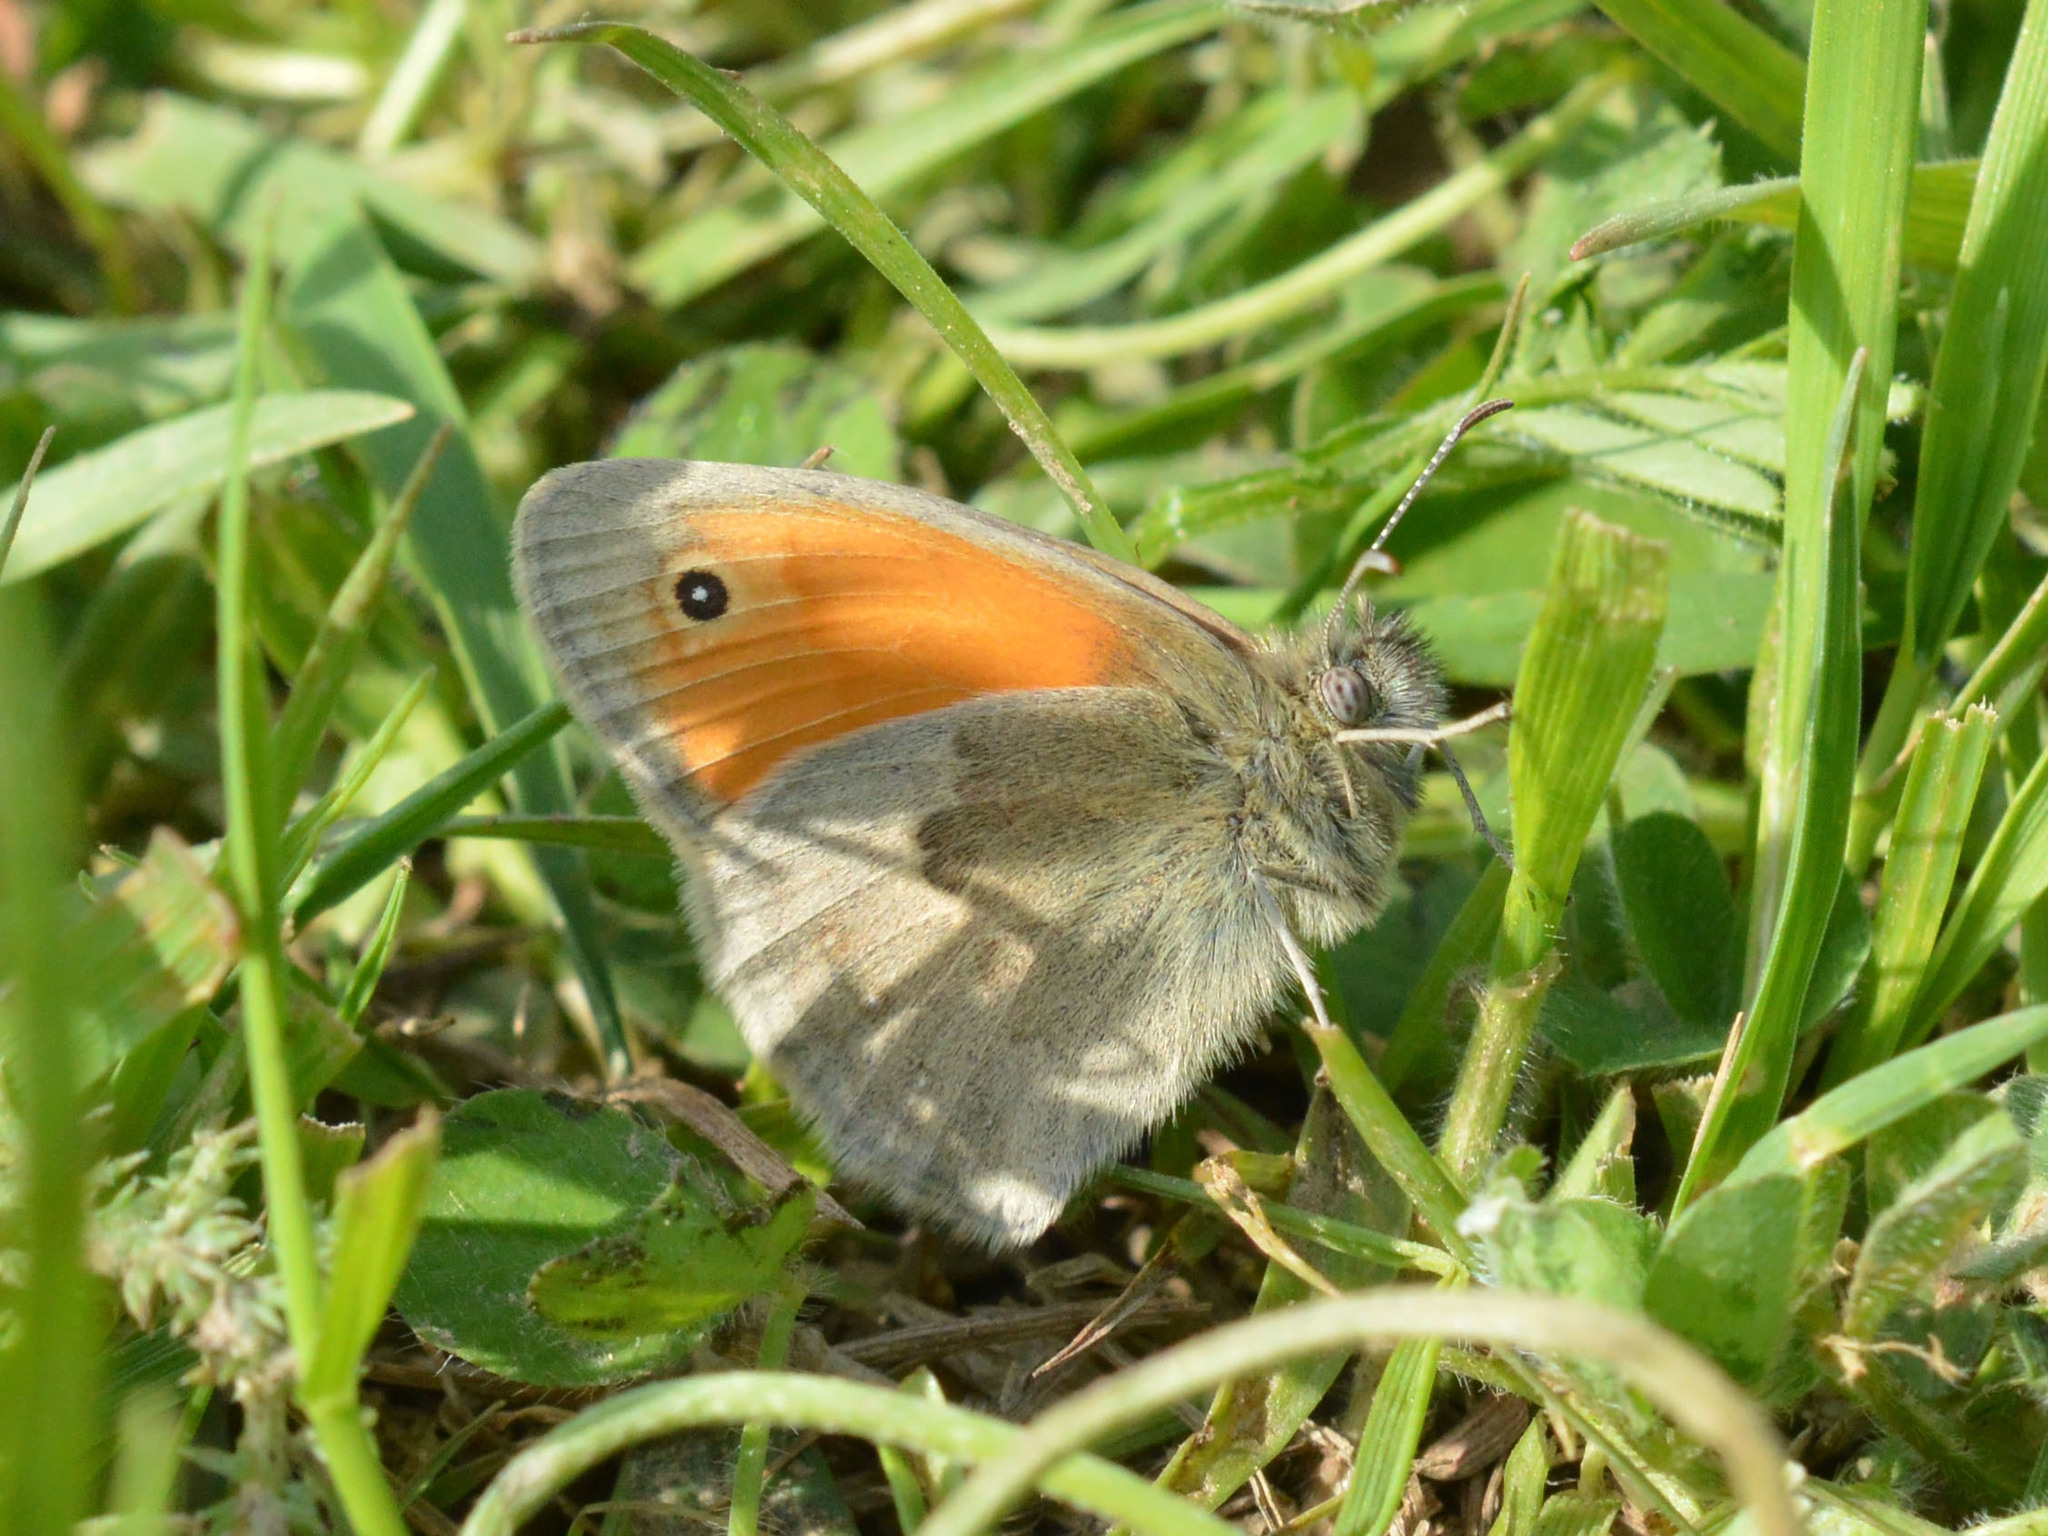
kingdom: Animalia
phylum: Arthropoda
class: Insecta
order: Lepidoptera
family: Nymphalidae
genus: Coenonympha
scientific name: Coenonympha pamphilus
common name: Small heath
